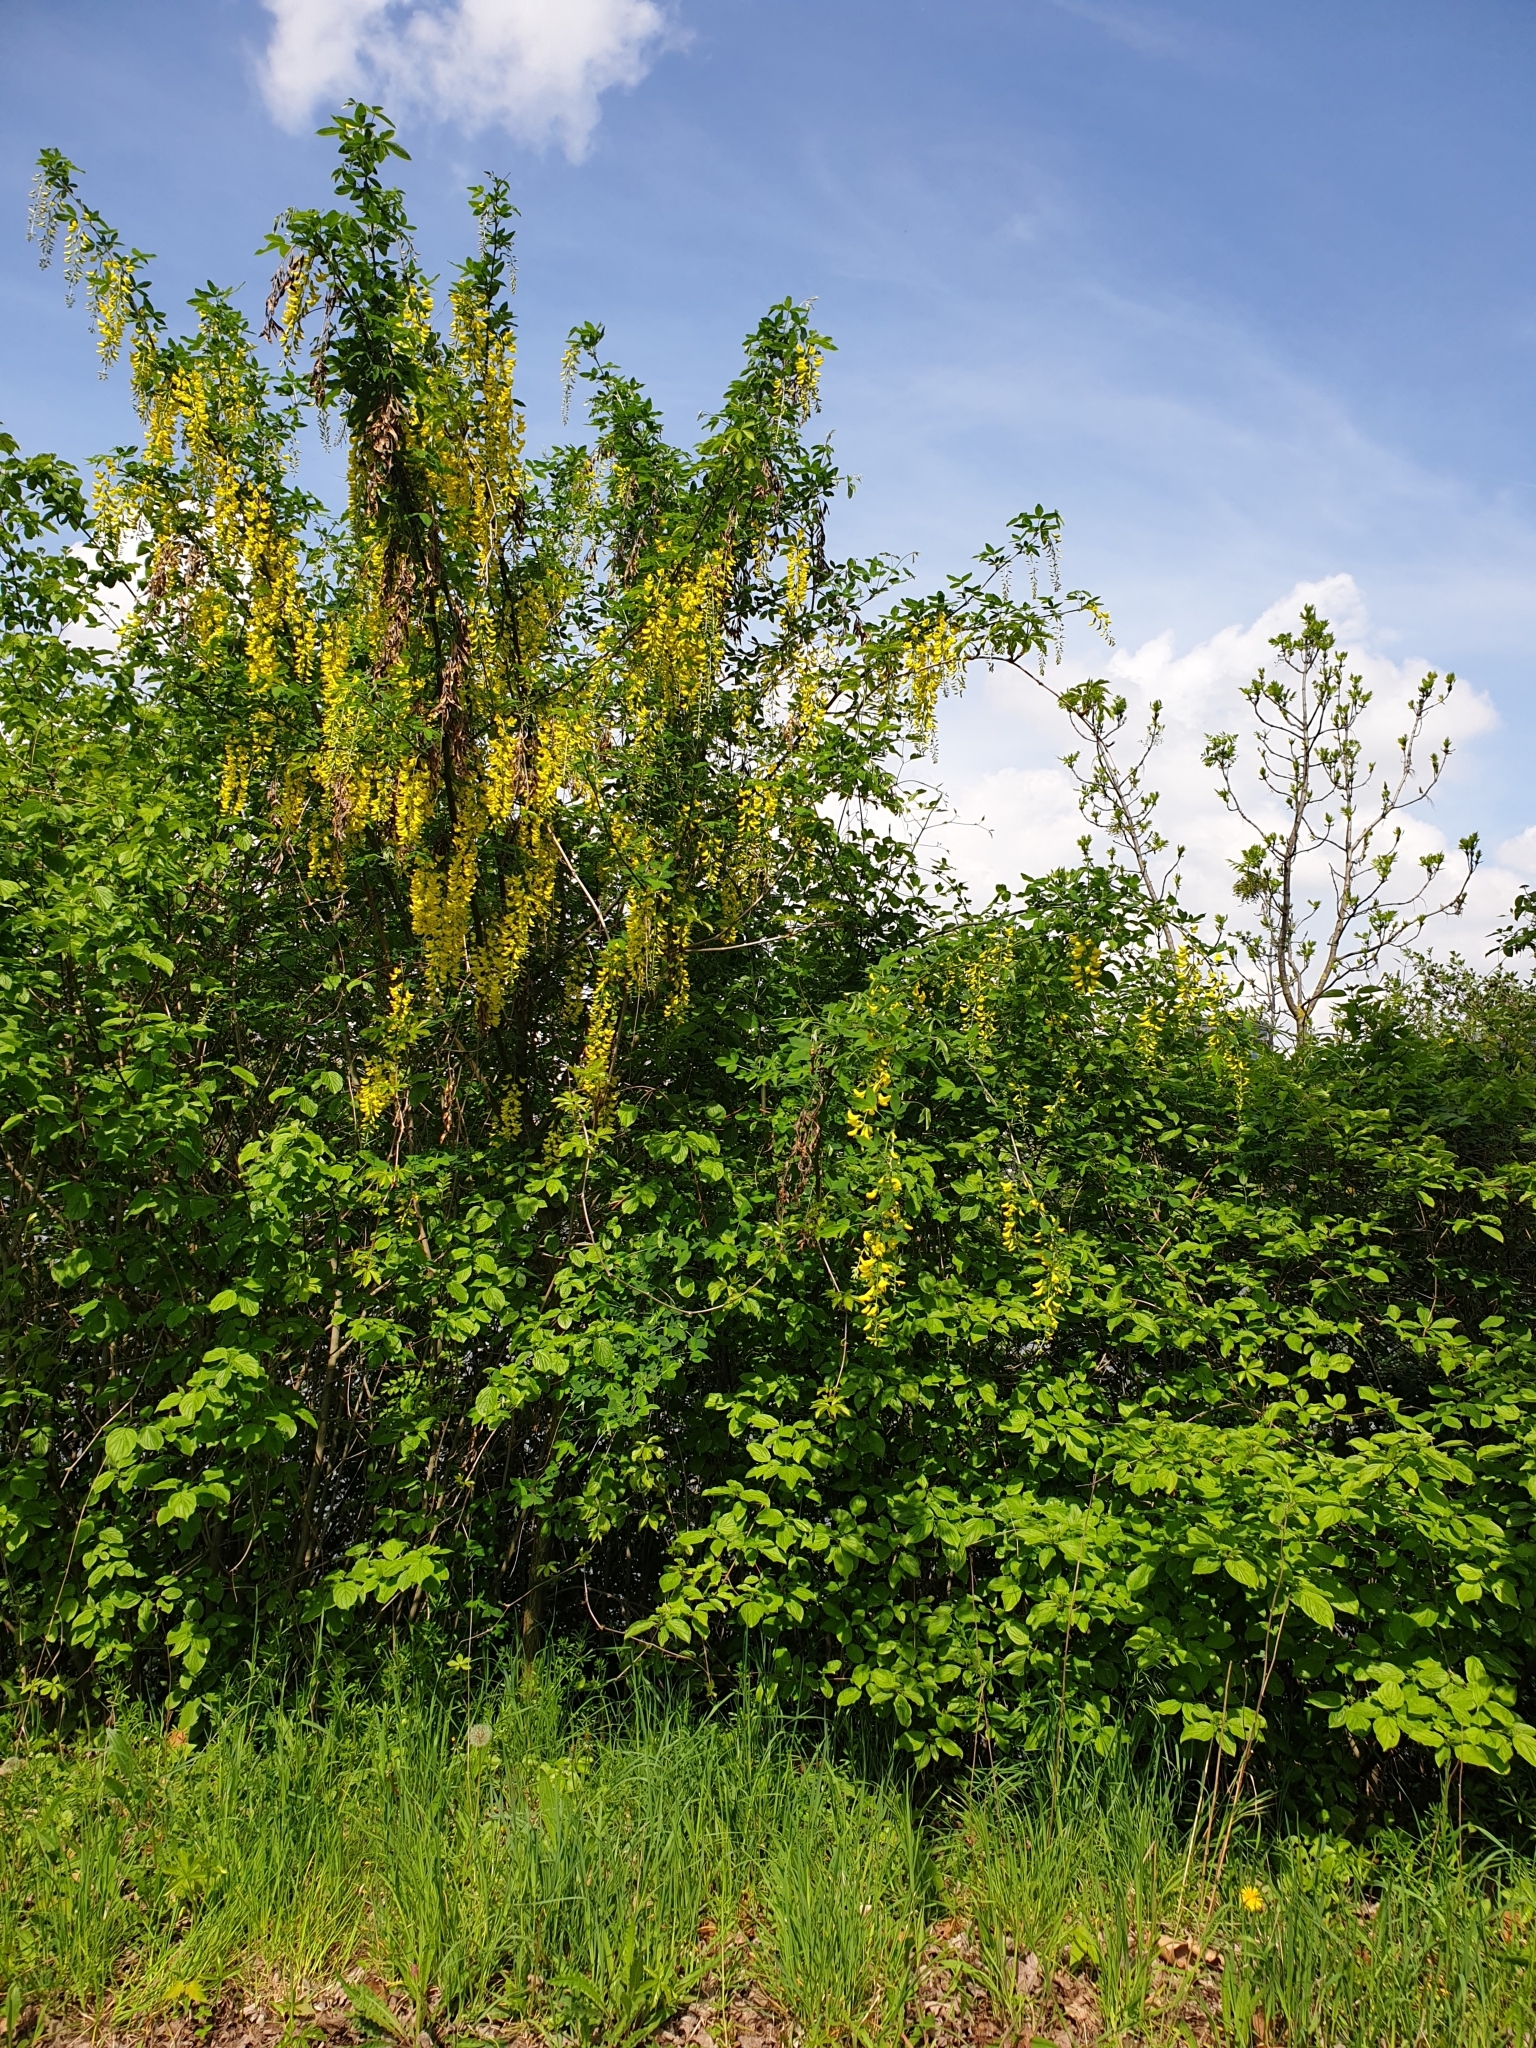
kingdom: Plantae
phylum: Tracheophyta
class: Magnoliopsida
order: Fabales
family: Fabaceae
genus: Laburnum
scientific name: Laburnum anagyroides
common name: Laburnum
